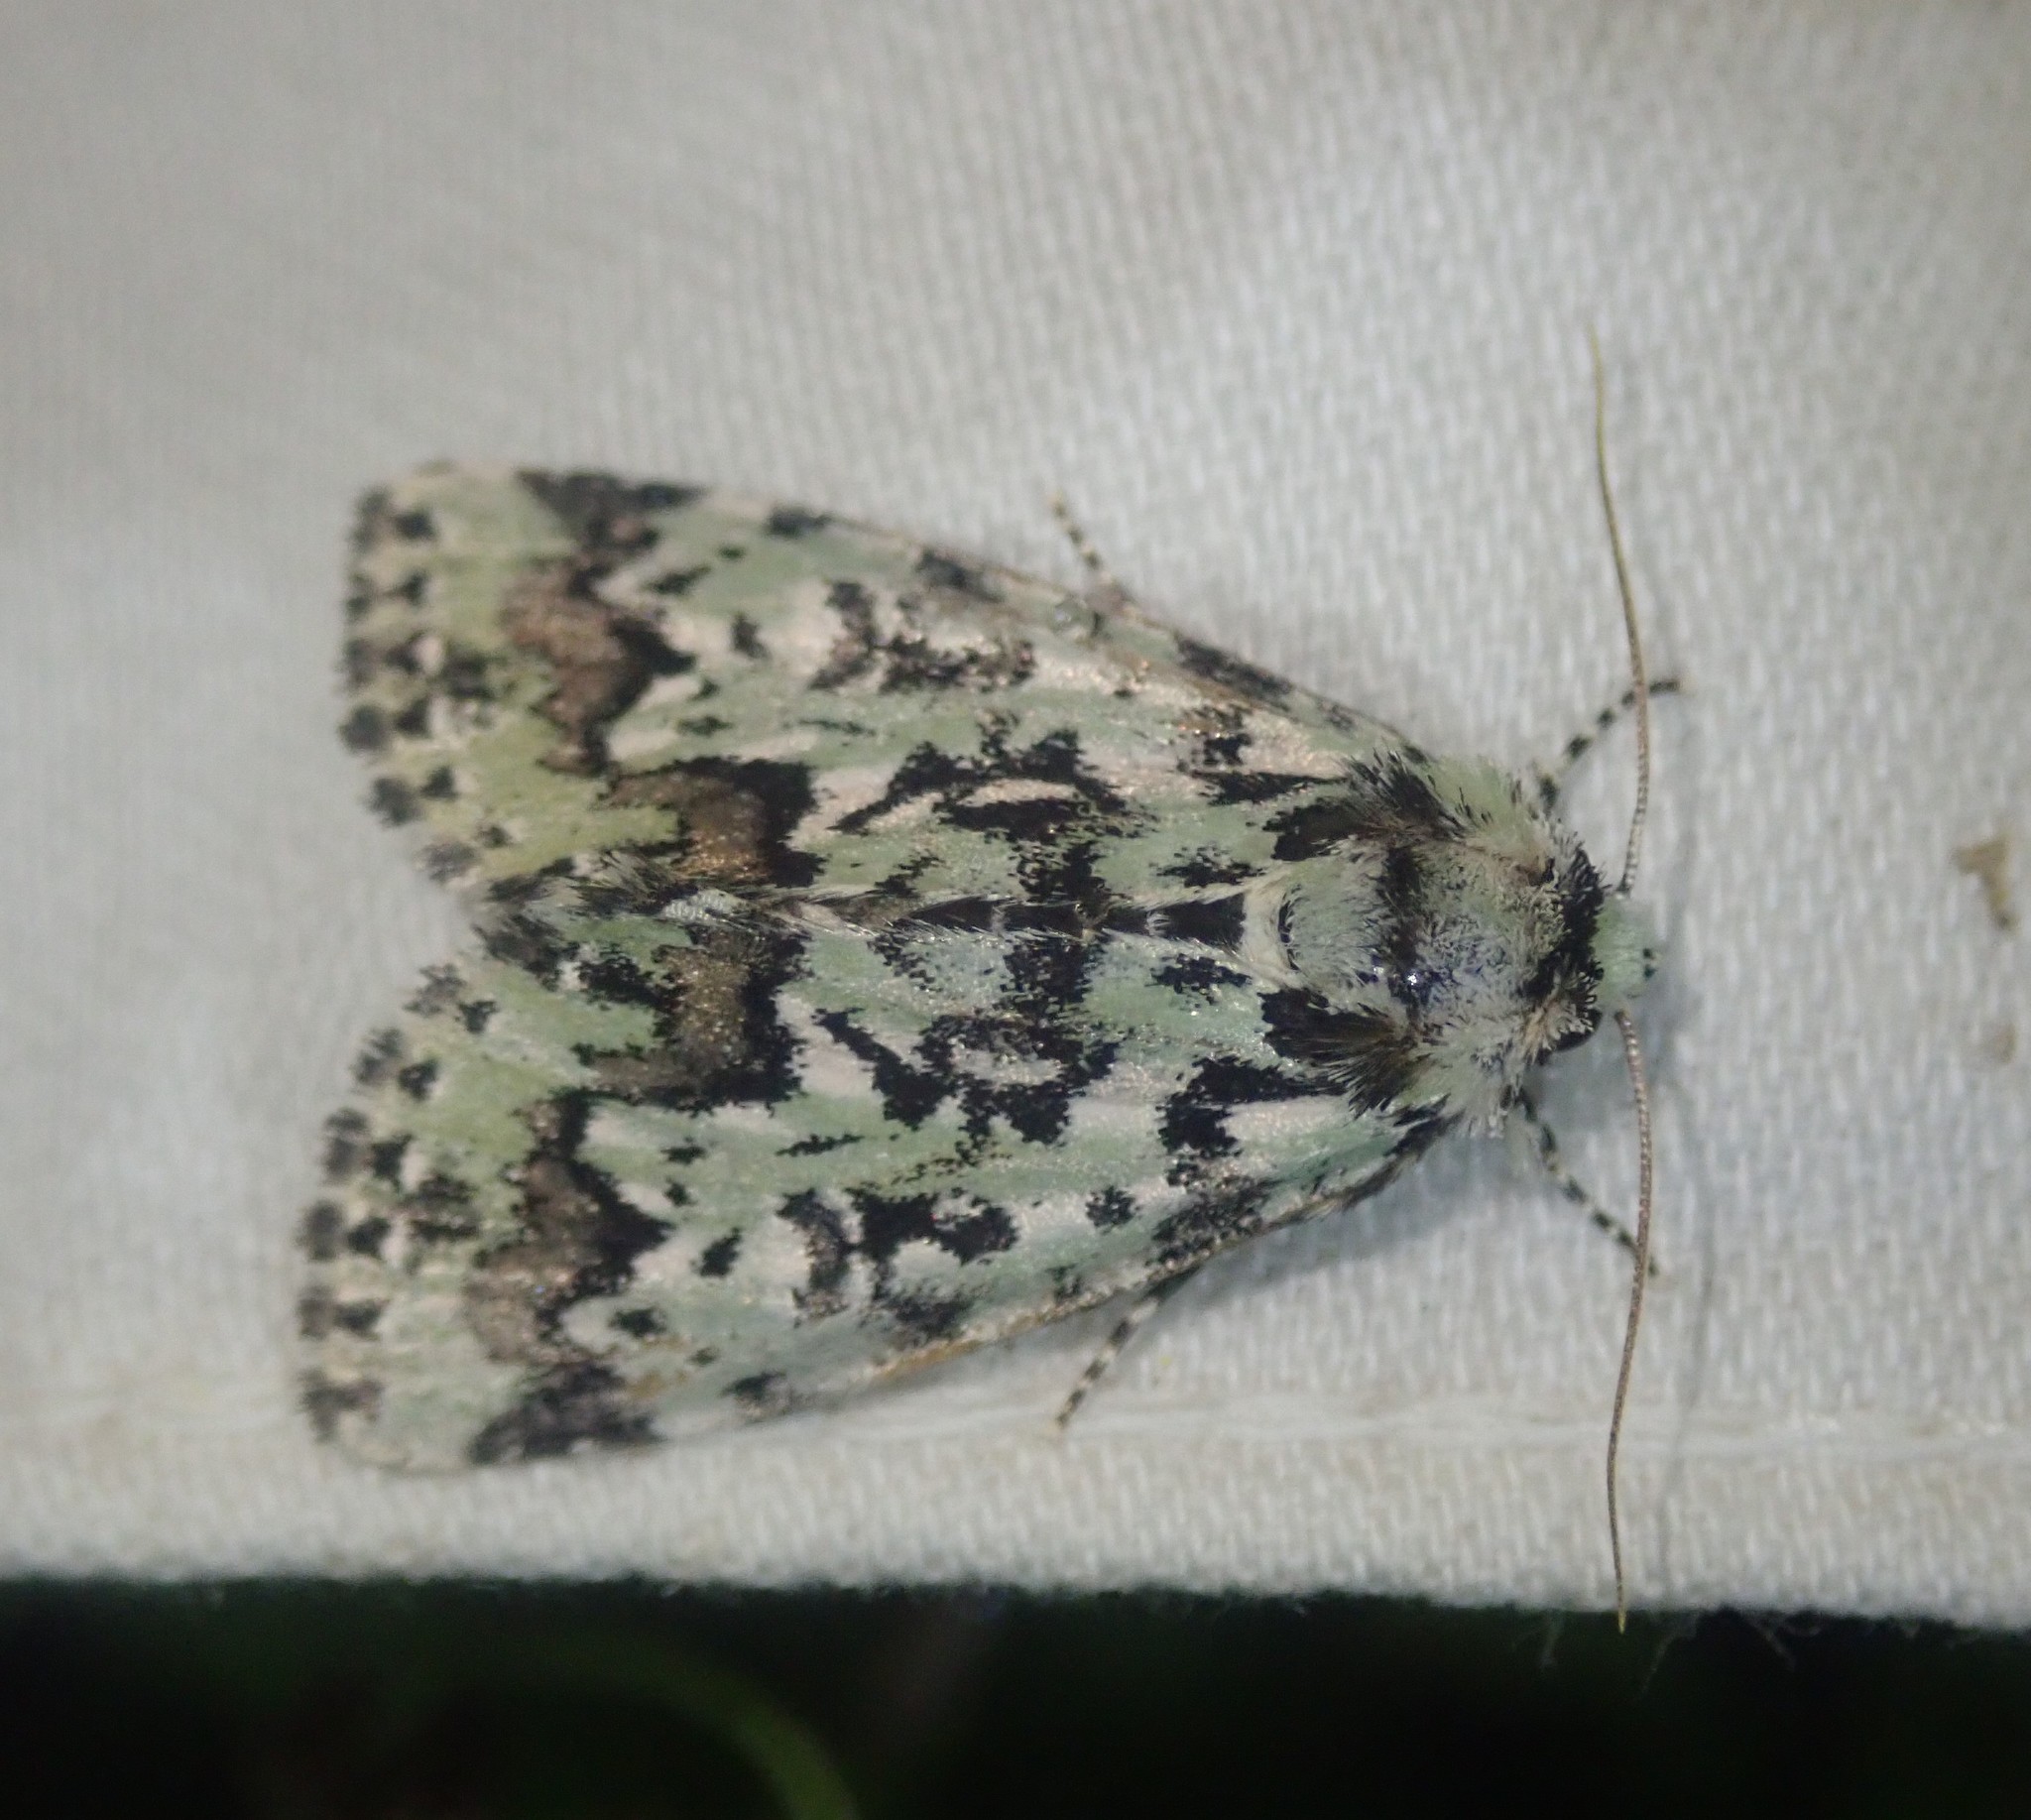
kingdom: Animalia
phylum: Arthropoda
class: Insecta
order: Lepidoptera
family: Noctuidae
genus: Moma
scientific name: Moma alpium
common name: Scarce merveille du jour
